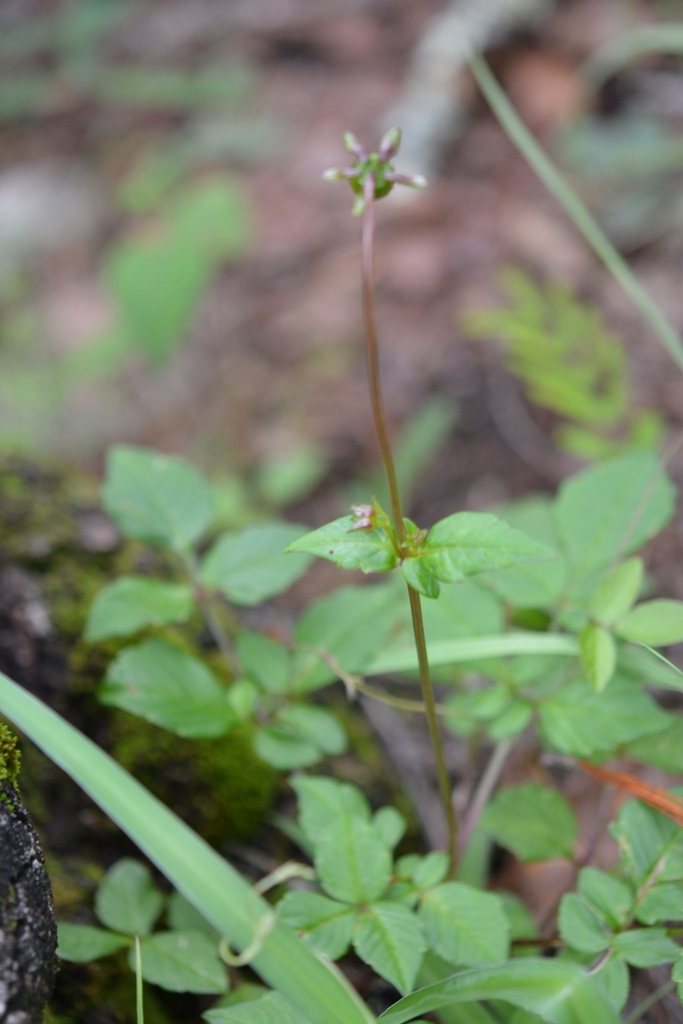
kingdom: Plantae
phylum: Tracheophyta
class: Magnoliopsida
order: Asterales
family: Asteraceae
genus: Dahlia
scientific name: Dahlia australis
